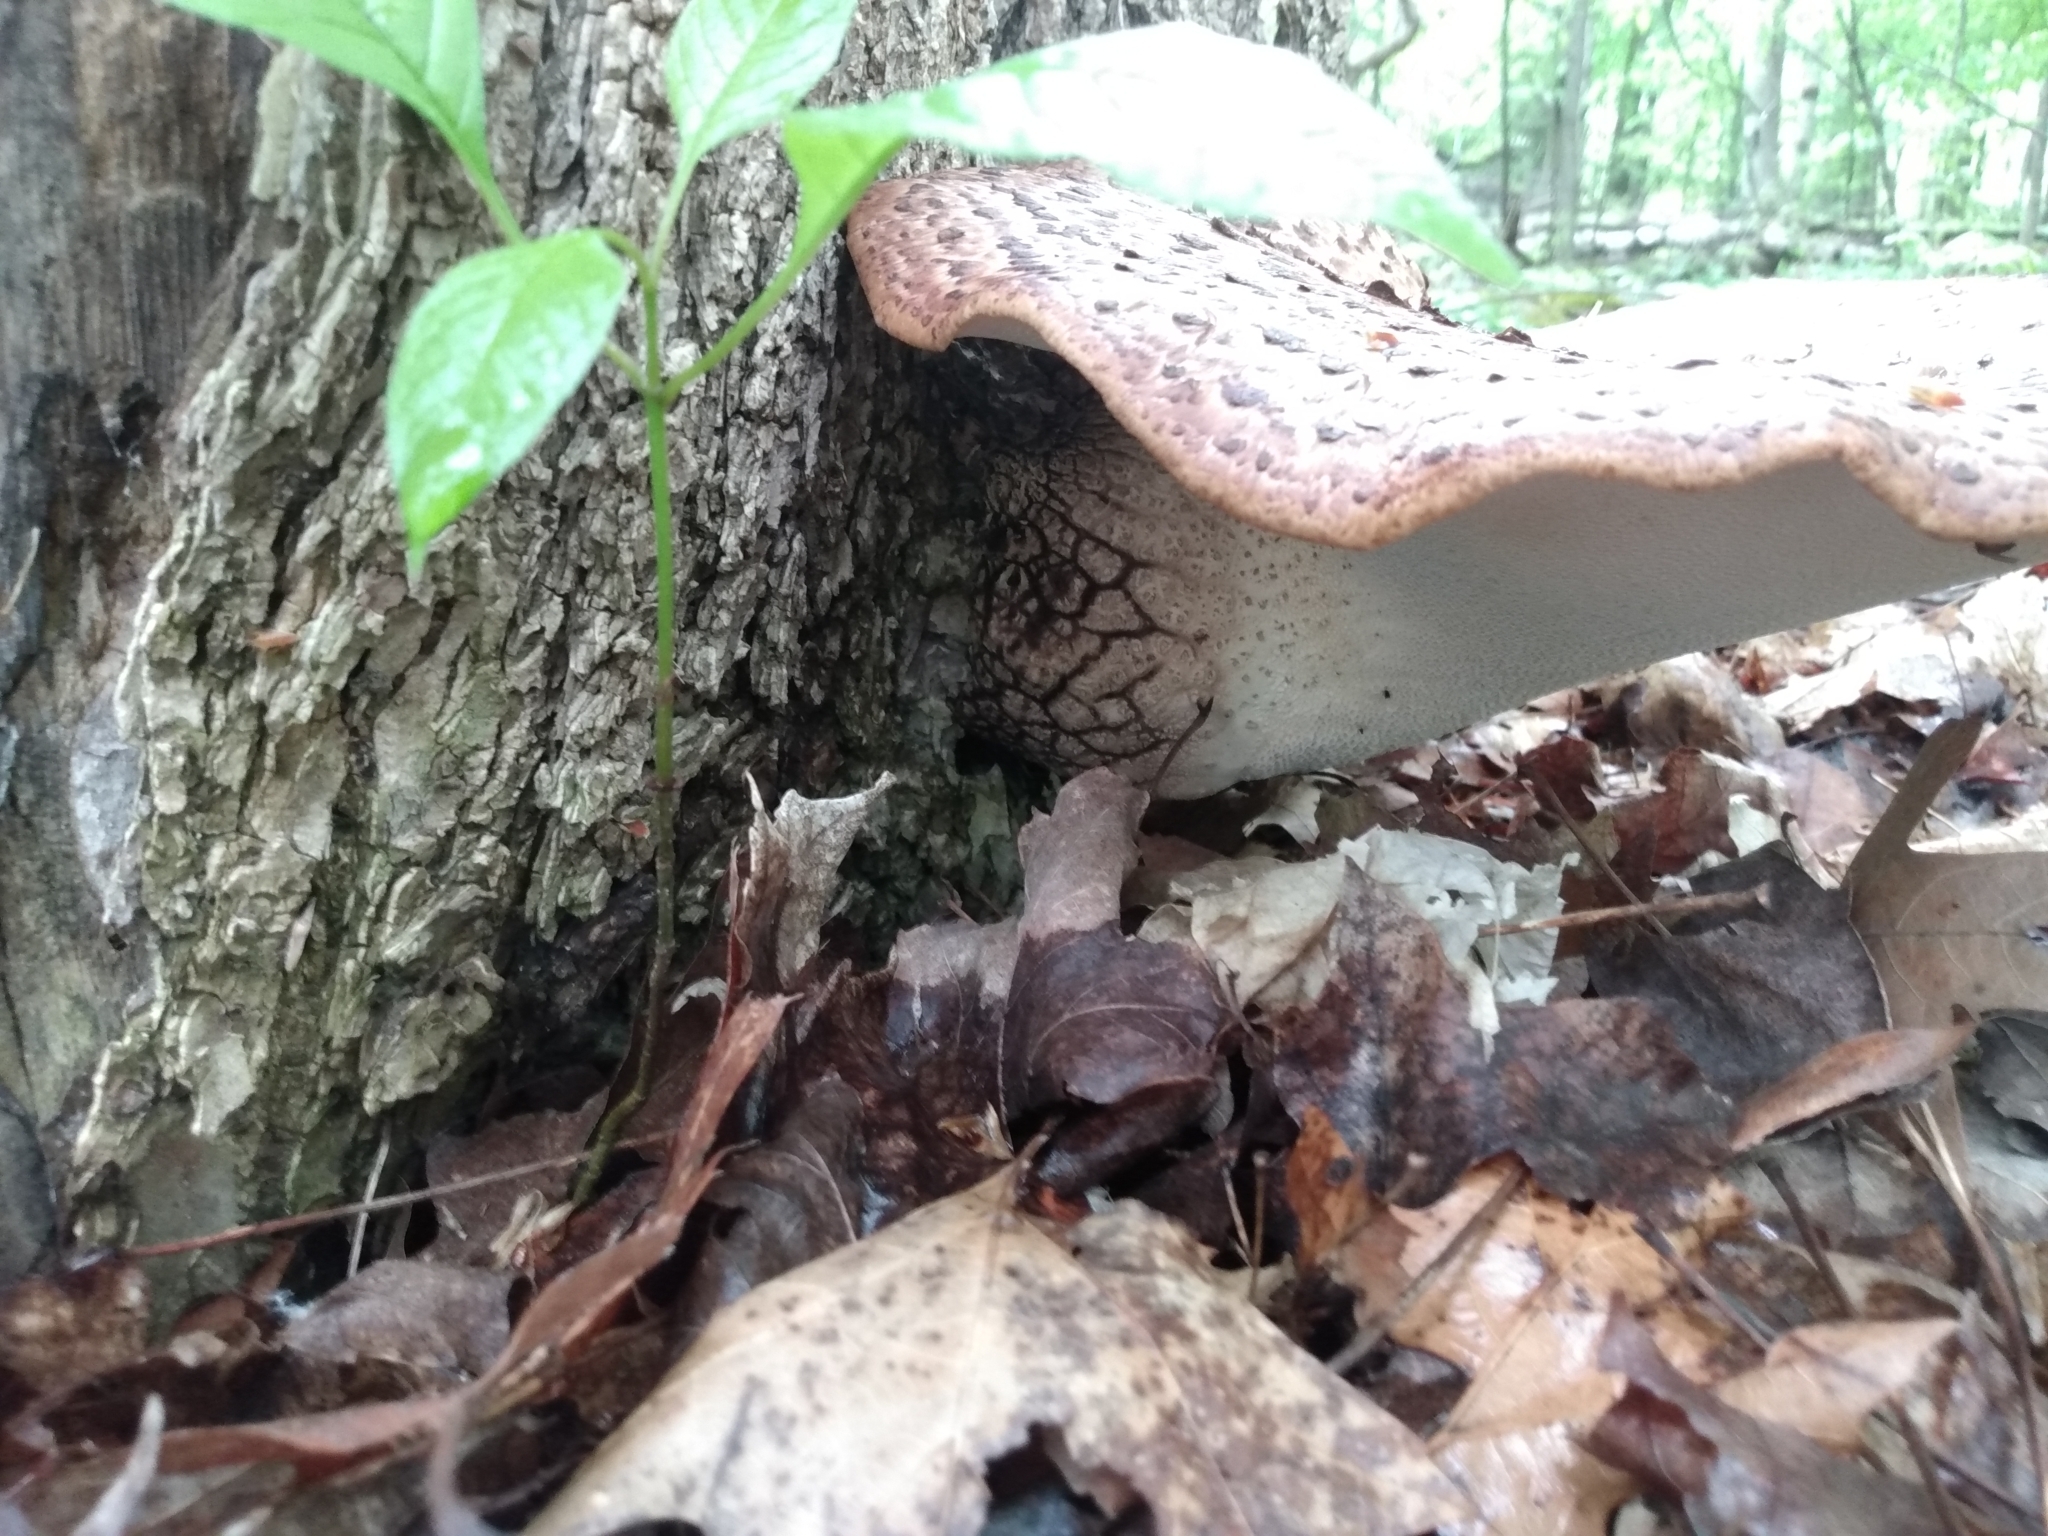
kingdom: Fungi
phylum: Basidiomycota
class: Agaricomycetes
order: Polyporales
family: Polyporaceae
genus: Cerioporus
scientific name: Cerioporus squamosus
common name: Dryad's saddle
